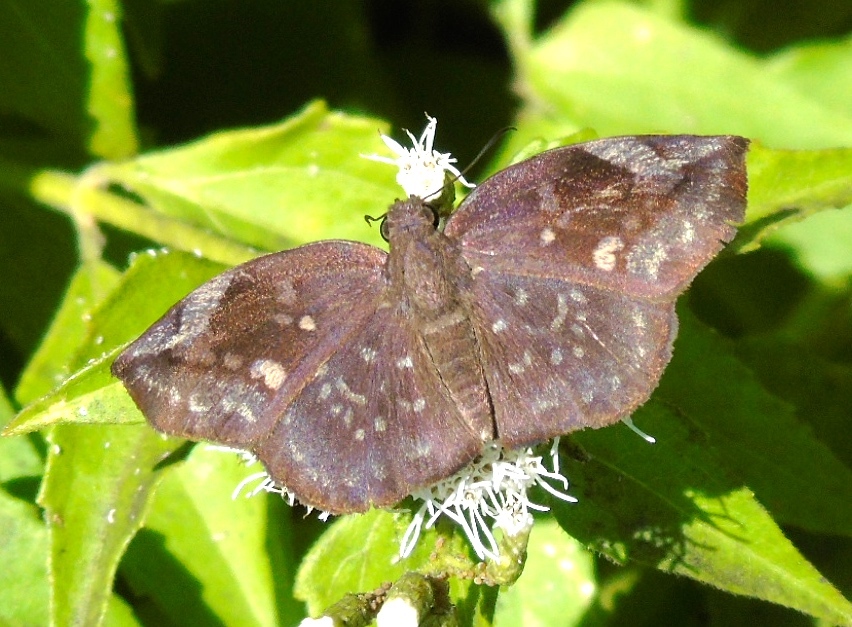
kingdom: Animalia
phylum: Arthropoda
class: Insecta
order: Lepidoptera
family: Hesperiidae
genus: Achlyodes
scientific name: Achlyodes thraso
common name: Sickle-winged skipper
